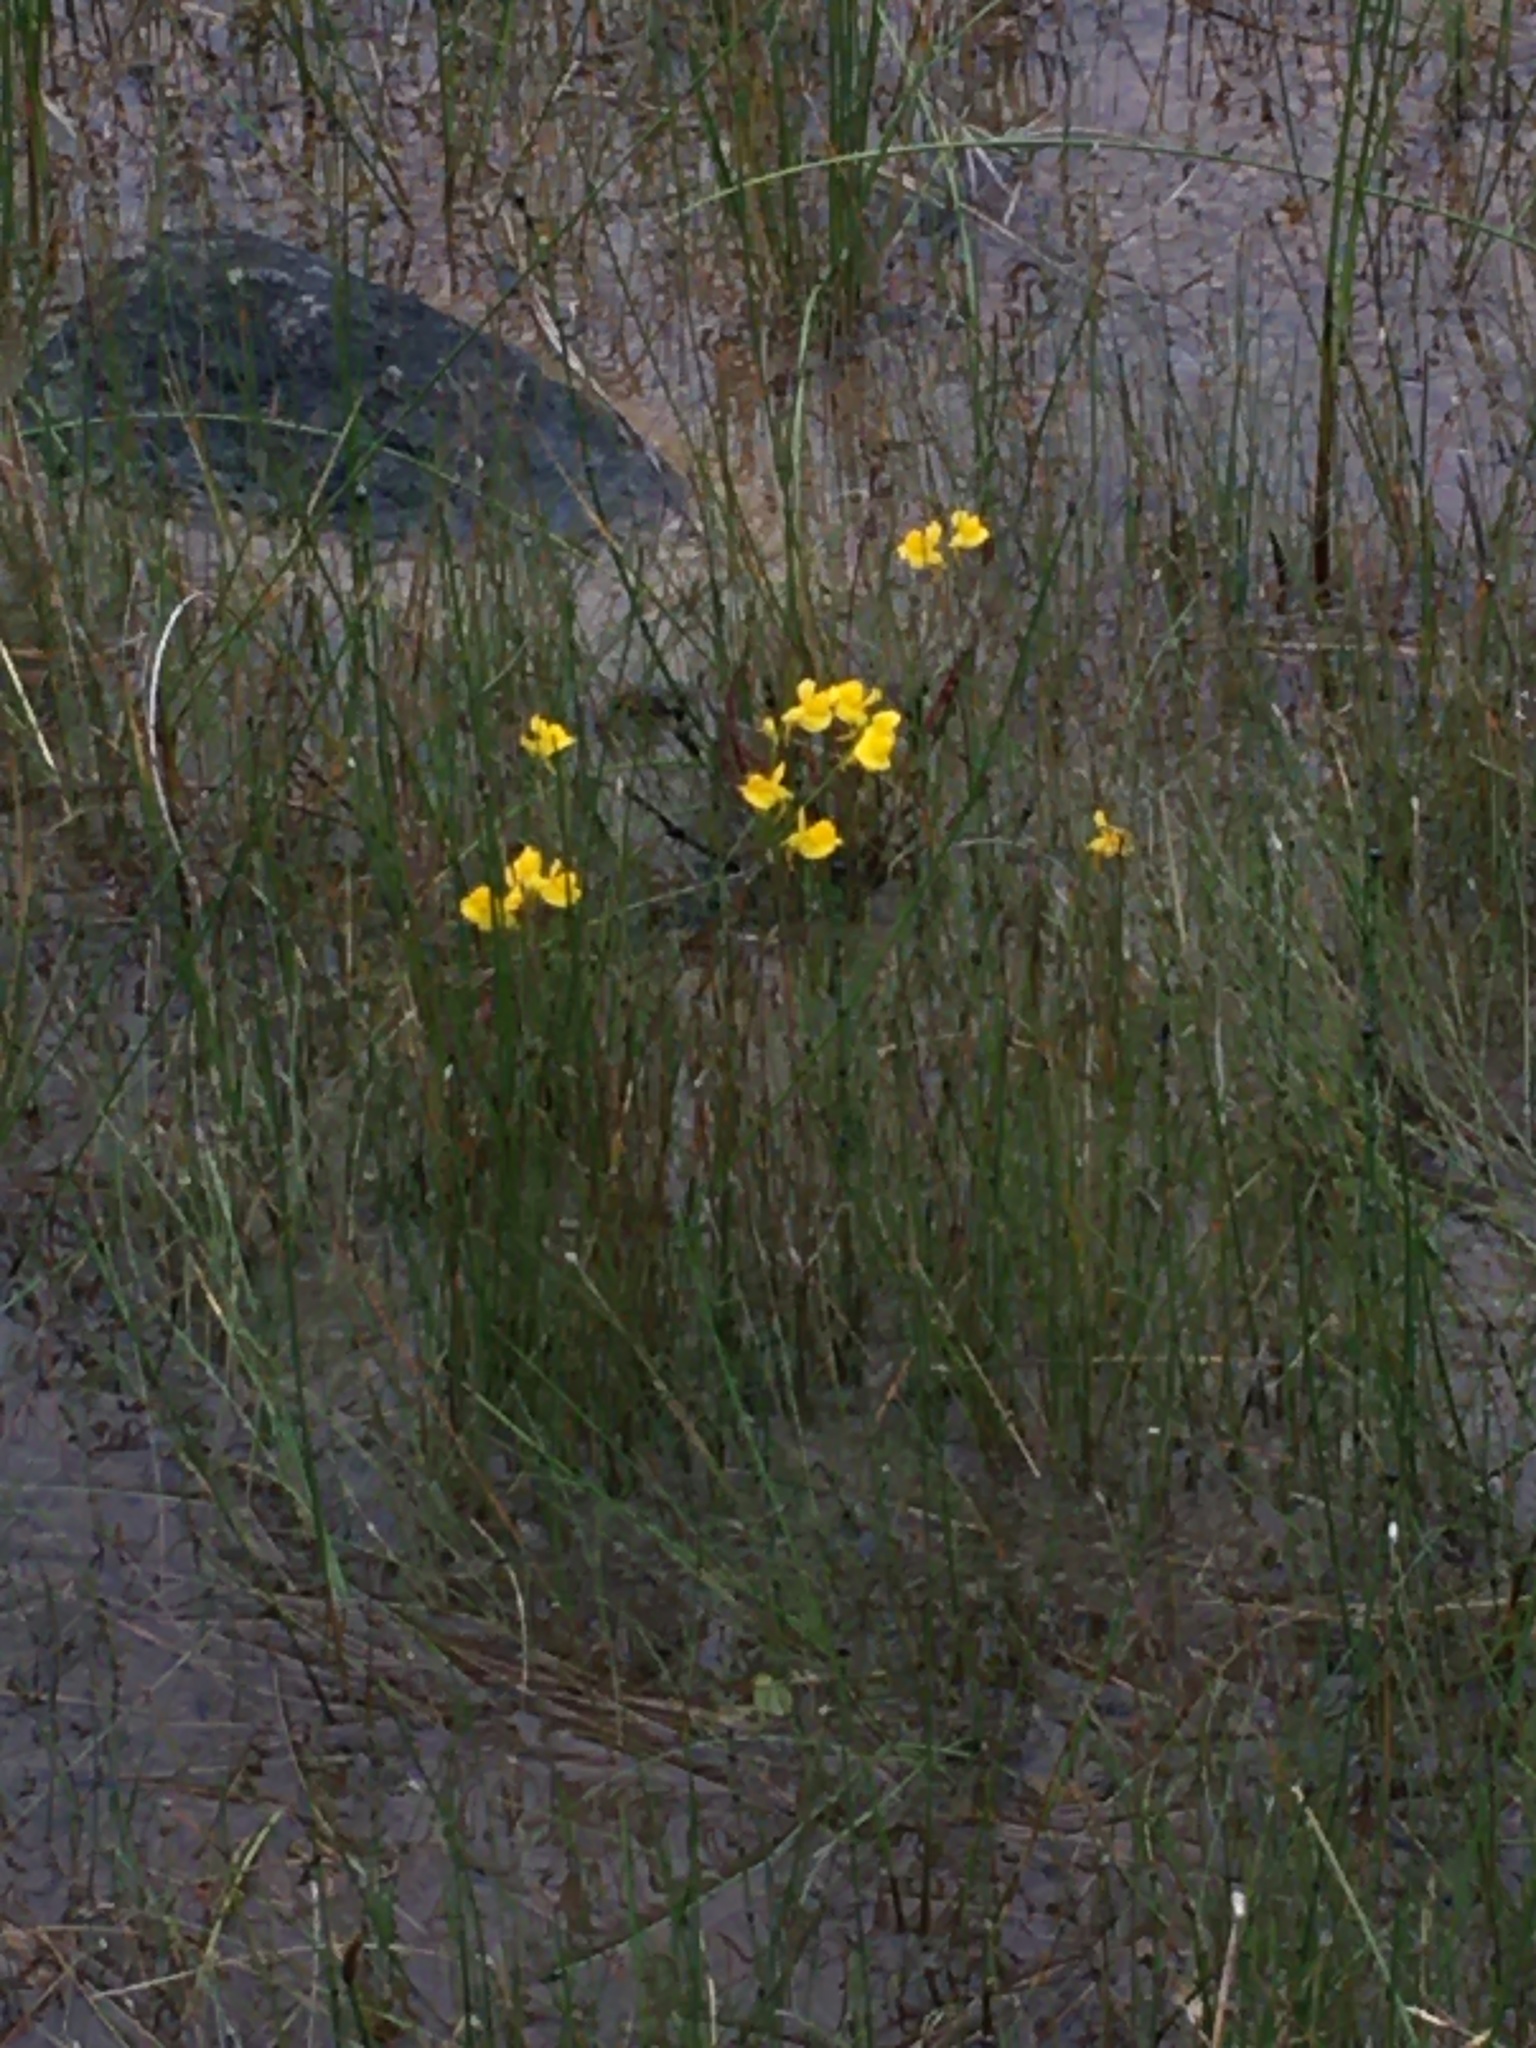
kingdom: Plantae
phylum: Tracheophyta
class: Magnoliopsida
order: Lamiales
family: Lentibulariaceae
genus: Utricularia
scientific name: Utricularia cornuta
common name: Horned bladderwort
